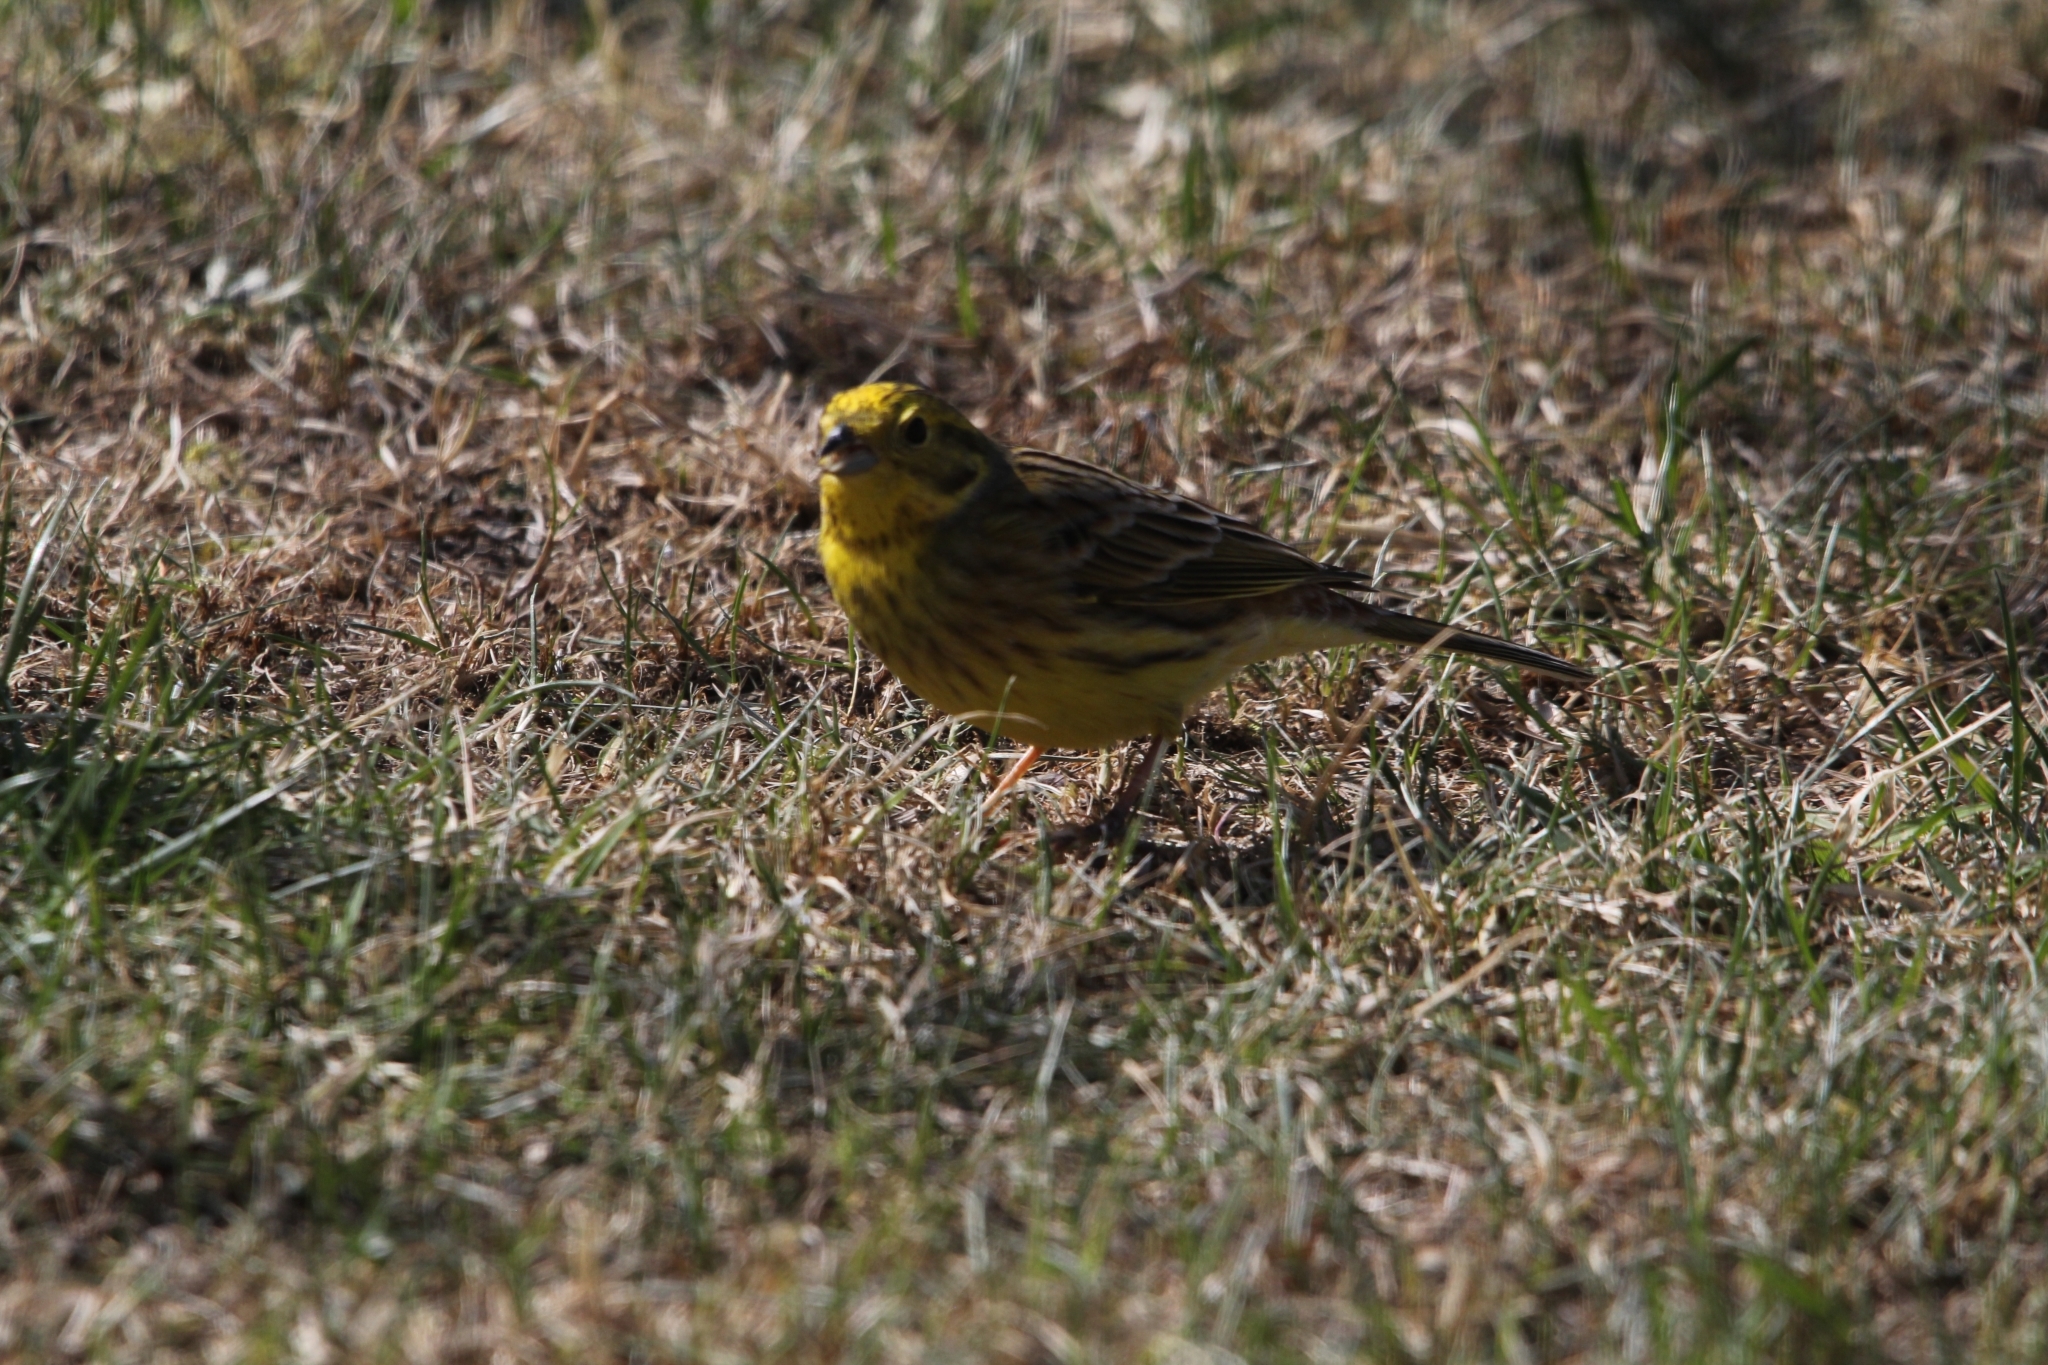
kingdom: Animalia
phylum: Chordata
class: Aves
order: Passeriformes
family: Emberizidae
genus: Emberiza
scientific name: Emberiza citrinella
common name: Yellowhammer
